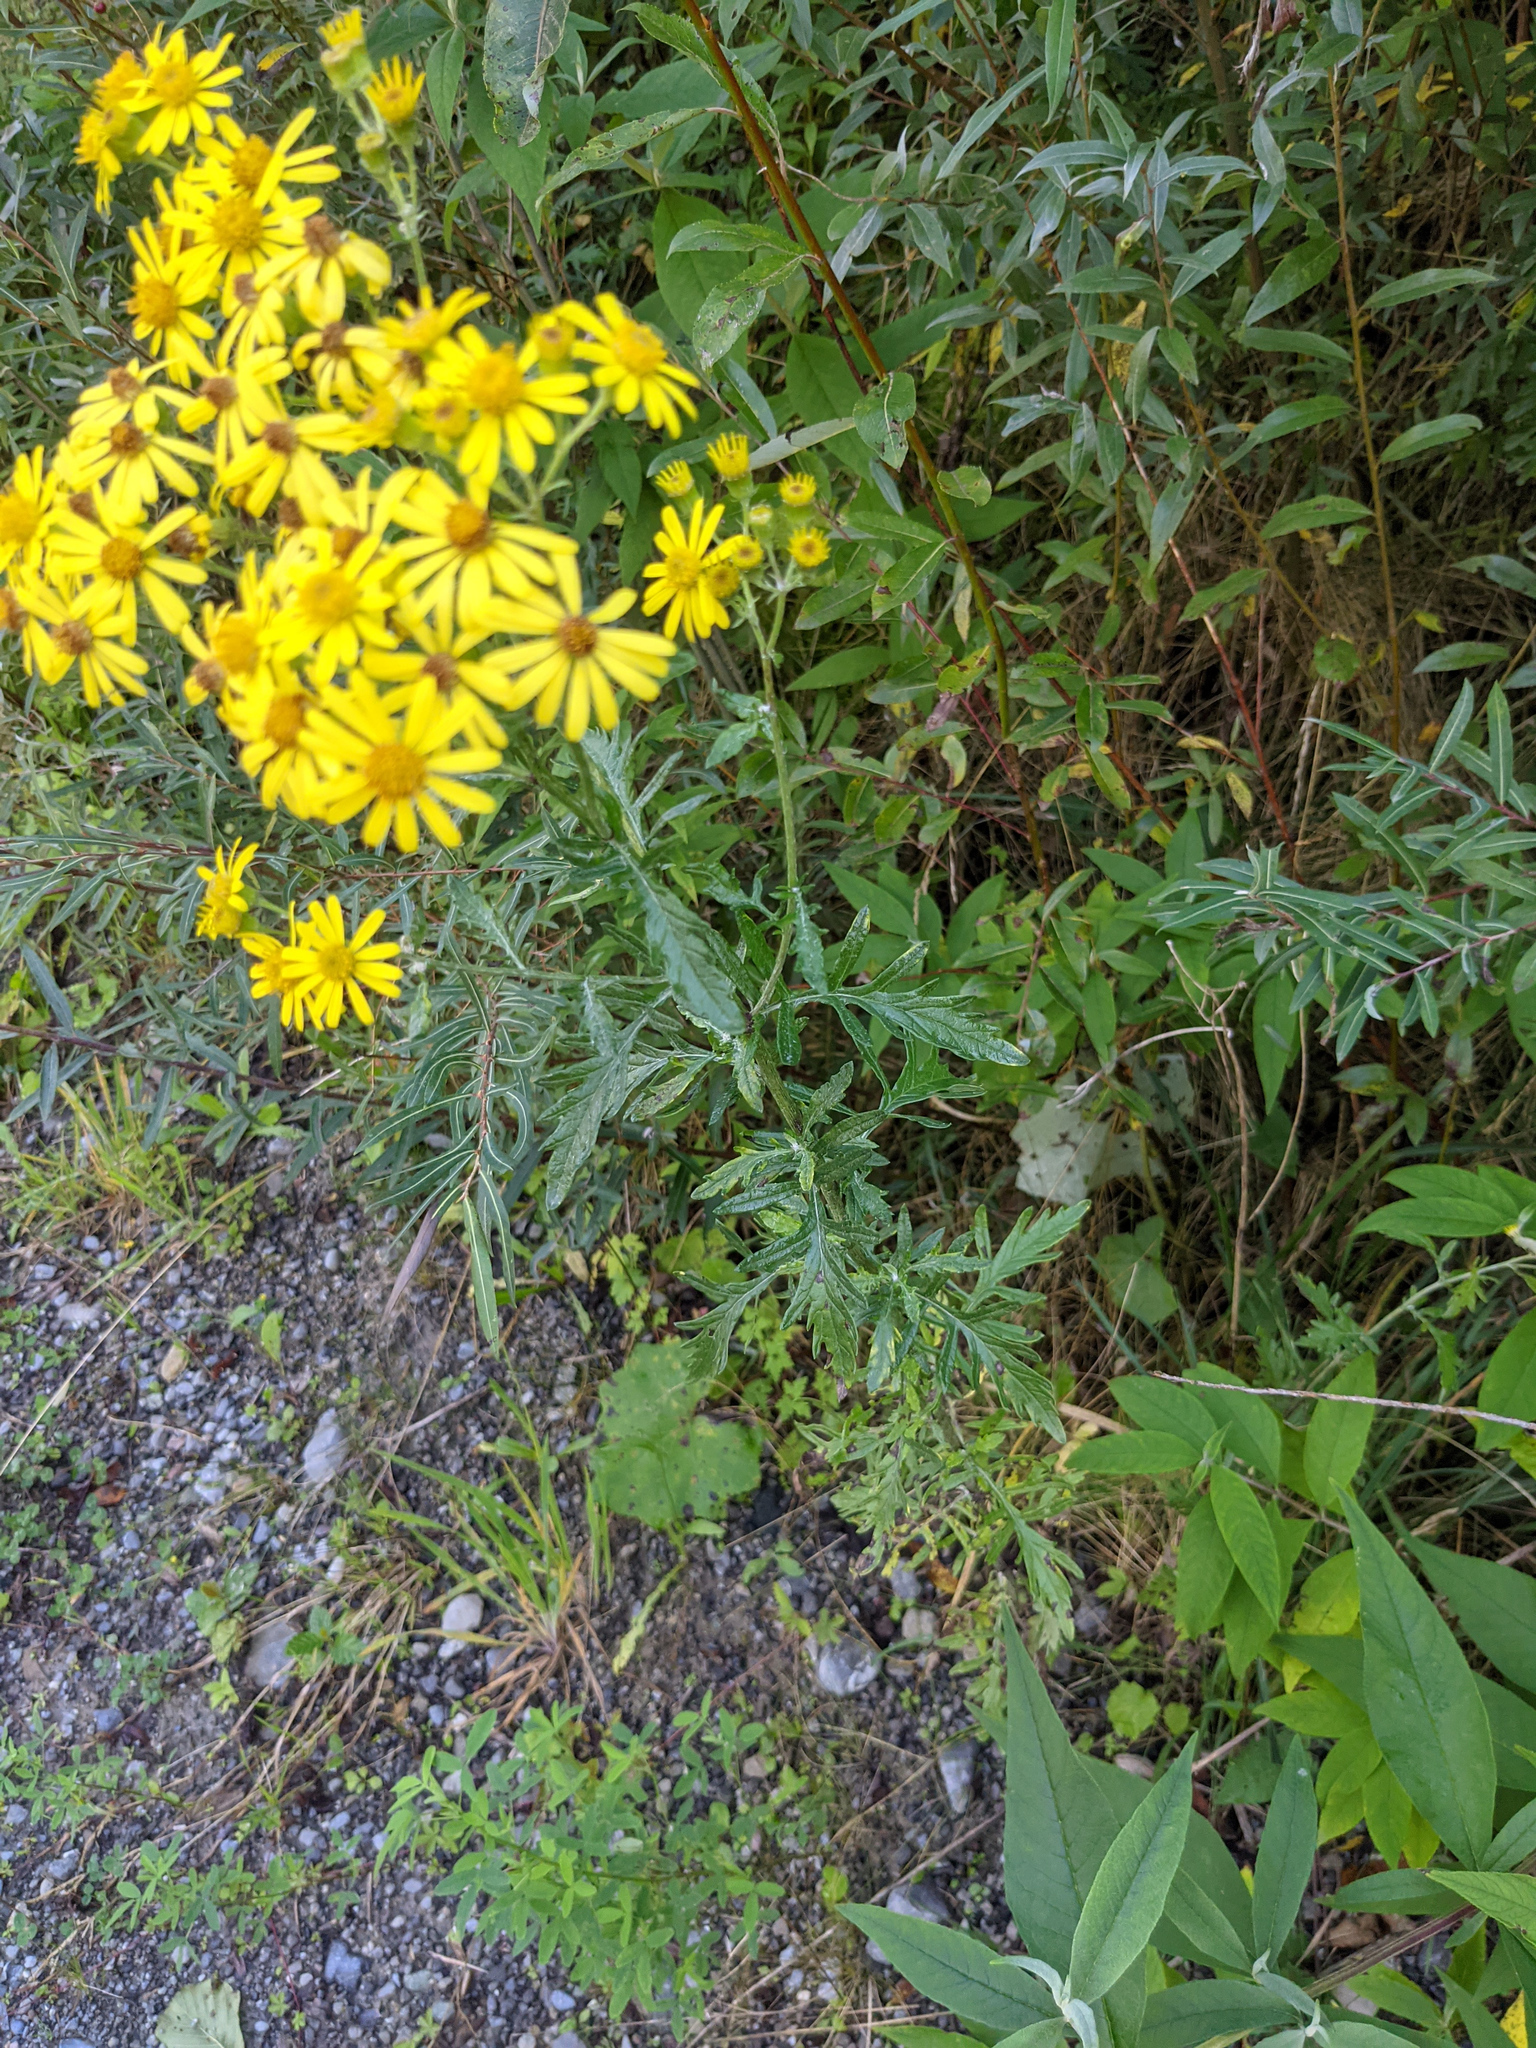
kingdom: Plantae
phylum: Tracheophyta
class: Magnoliopsida
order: Asterales
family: Asteraceae
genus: Jacobaea
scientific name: Jacobaea erucifolia
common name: Hoary ragwort
